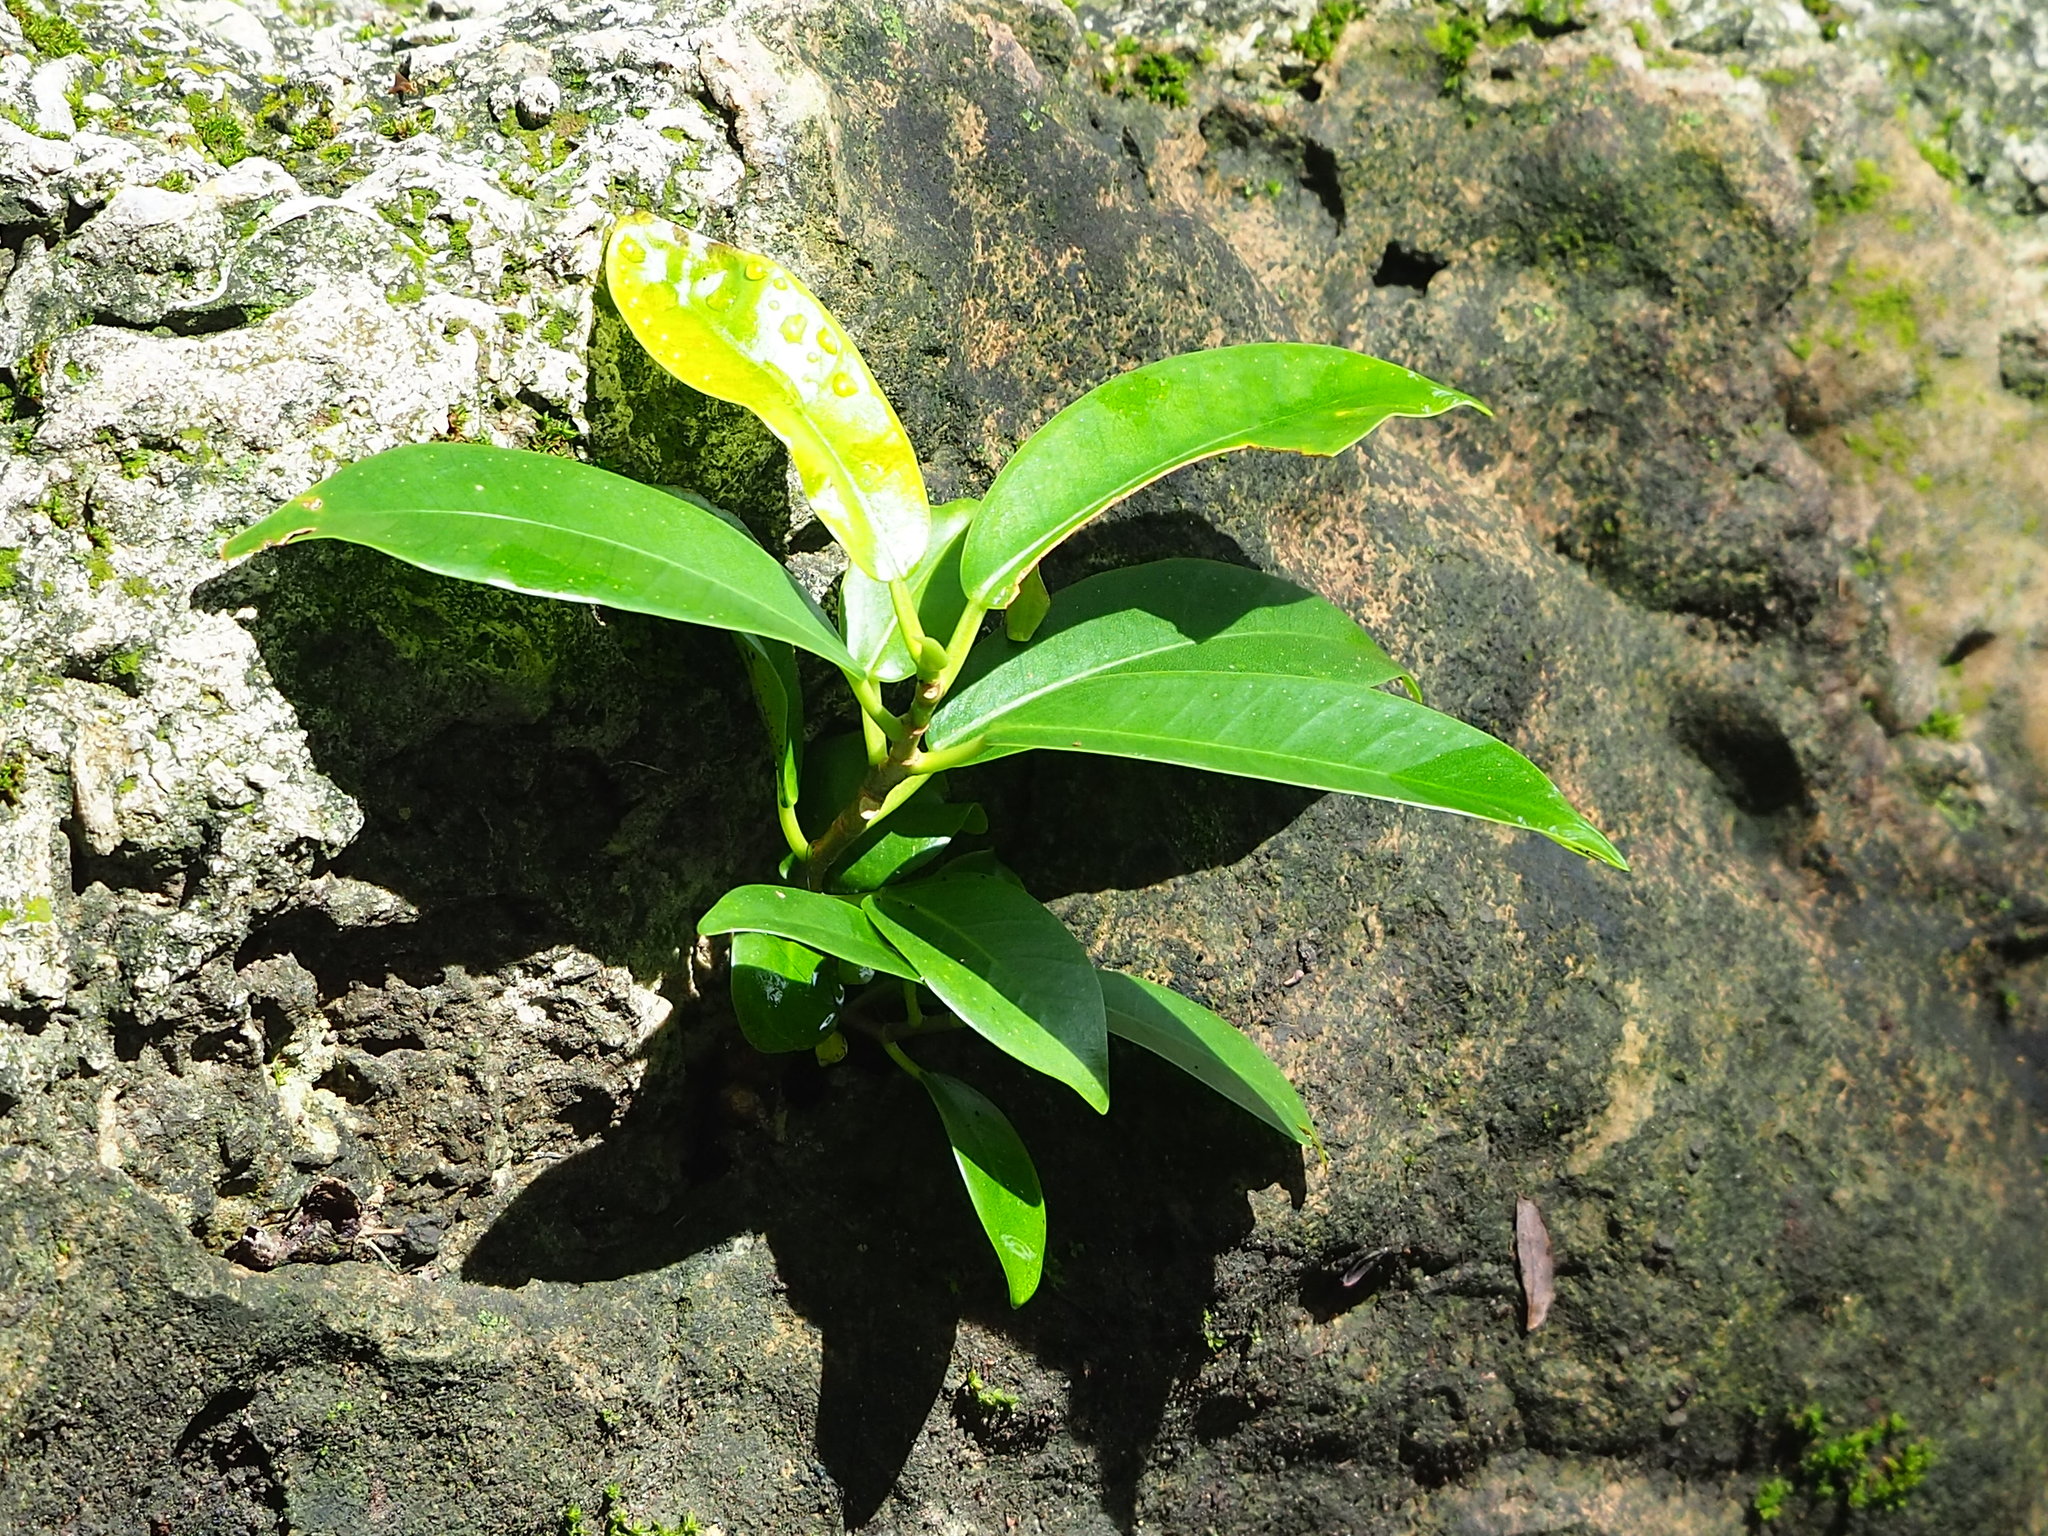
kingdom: Plantae
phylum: Tracheophyta
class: Magnoliopsida
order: Rosales
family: Moraceae
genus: Ficus
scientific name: Ficus microcarpa
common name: Chinese banyan
